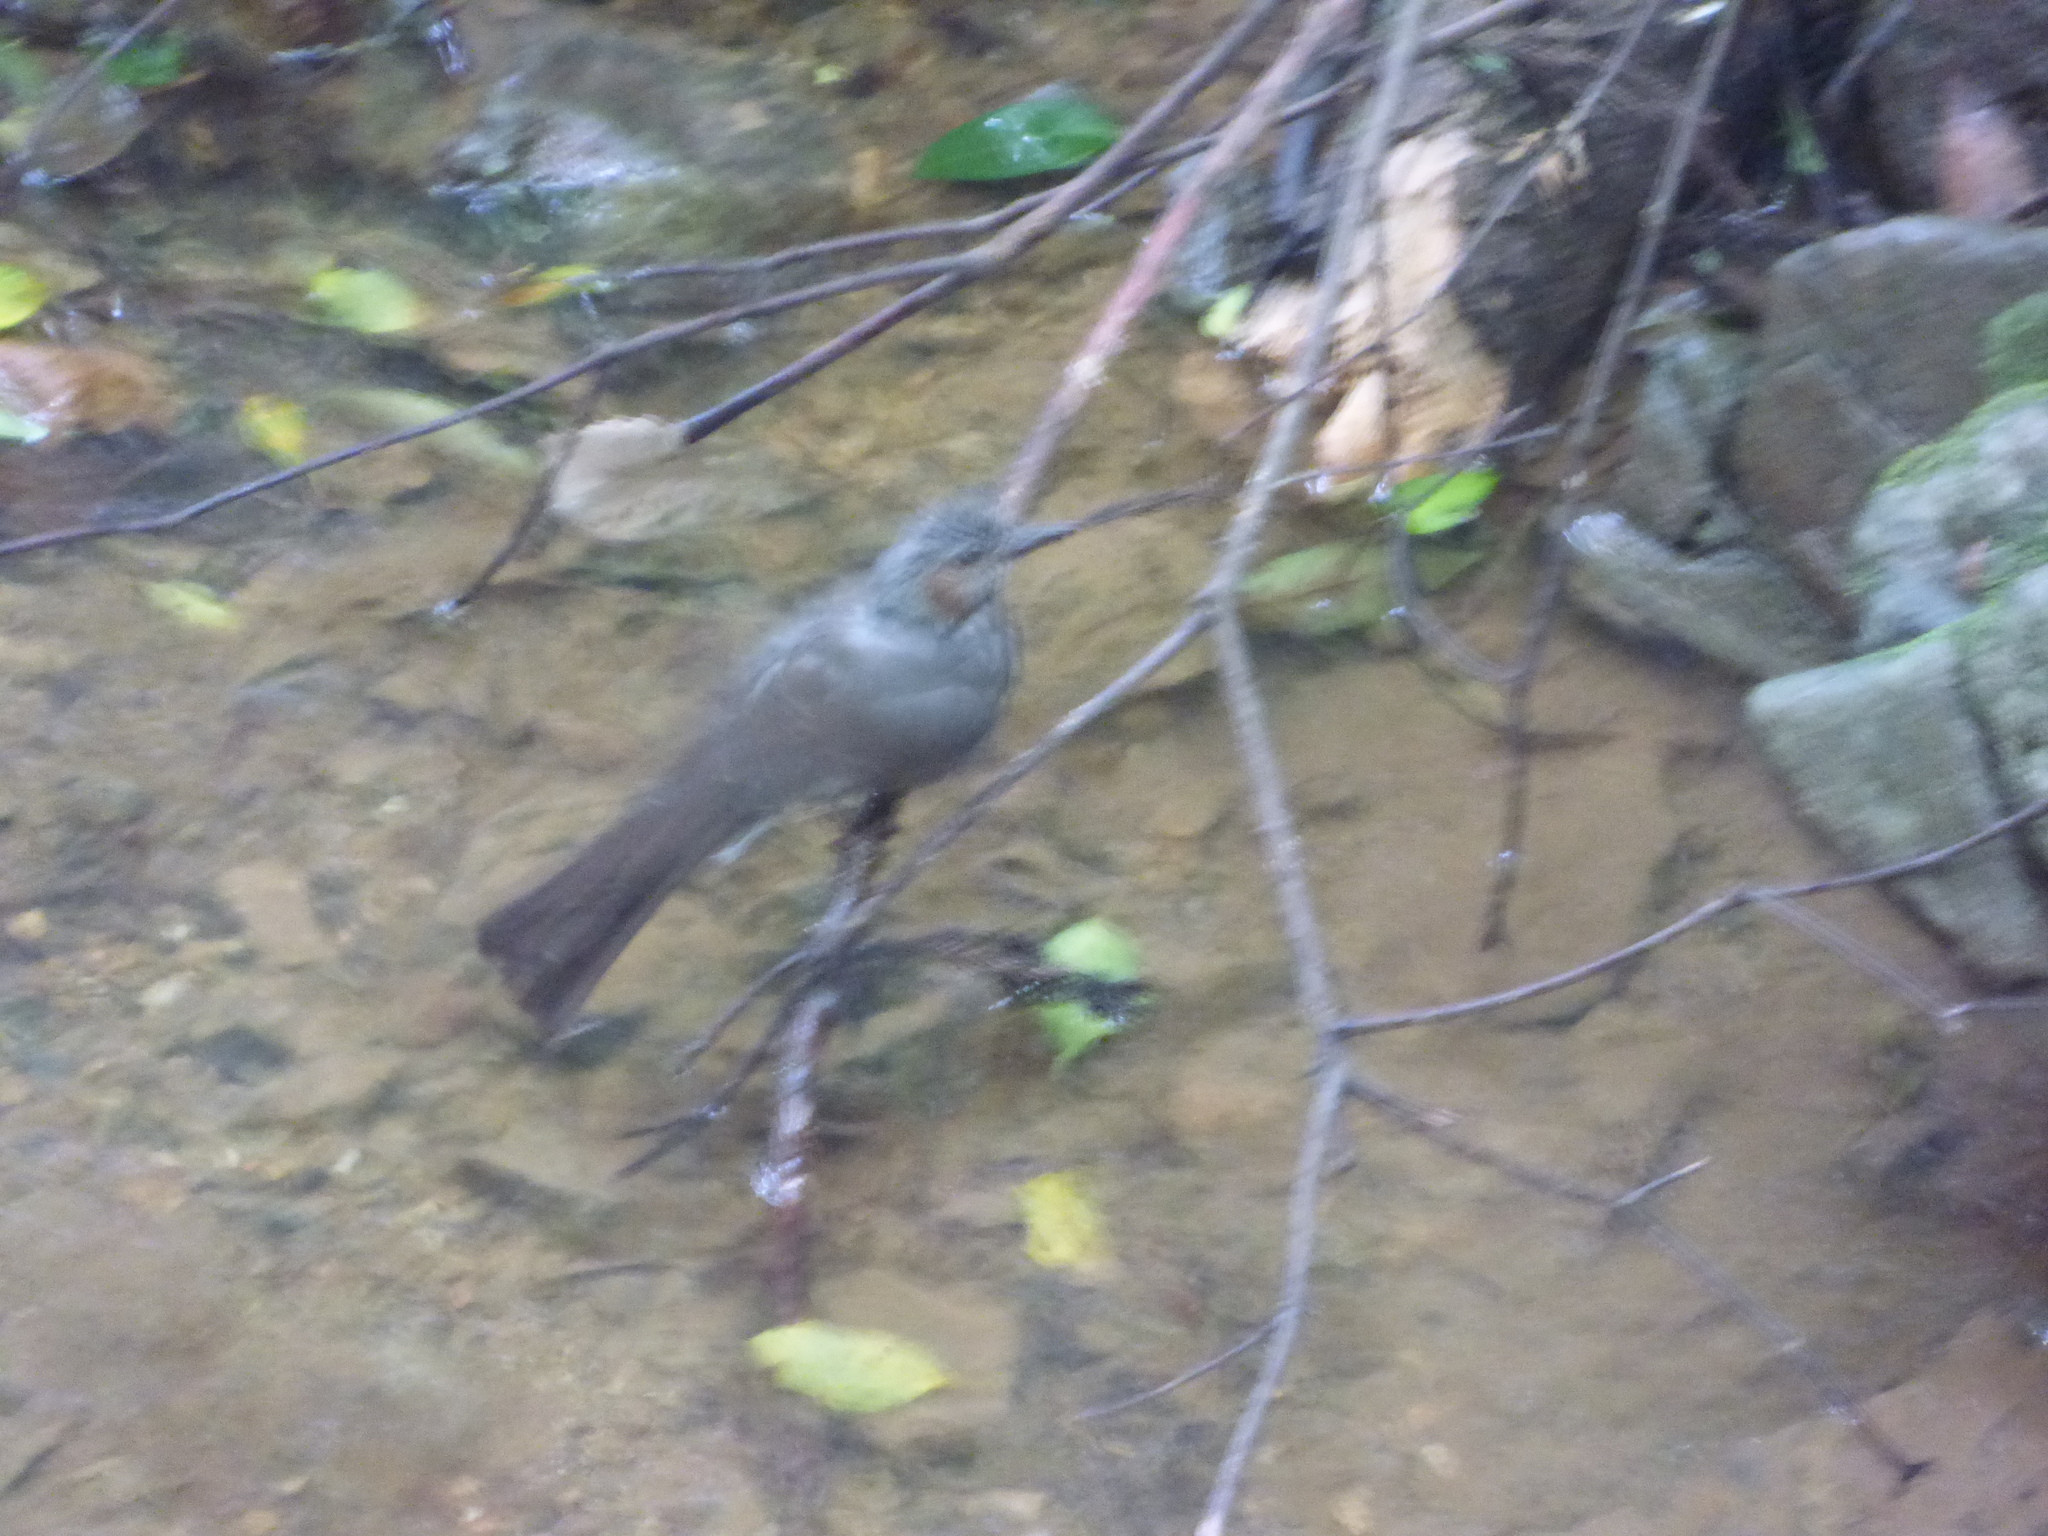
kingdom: Animalia
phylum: Chordata
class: Aves
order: Passeriformes
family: Pycnonotidae
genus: Hypsipetes
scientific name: Hypsipetes amaurotis
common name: Brown-eared bulbul
